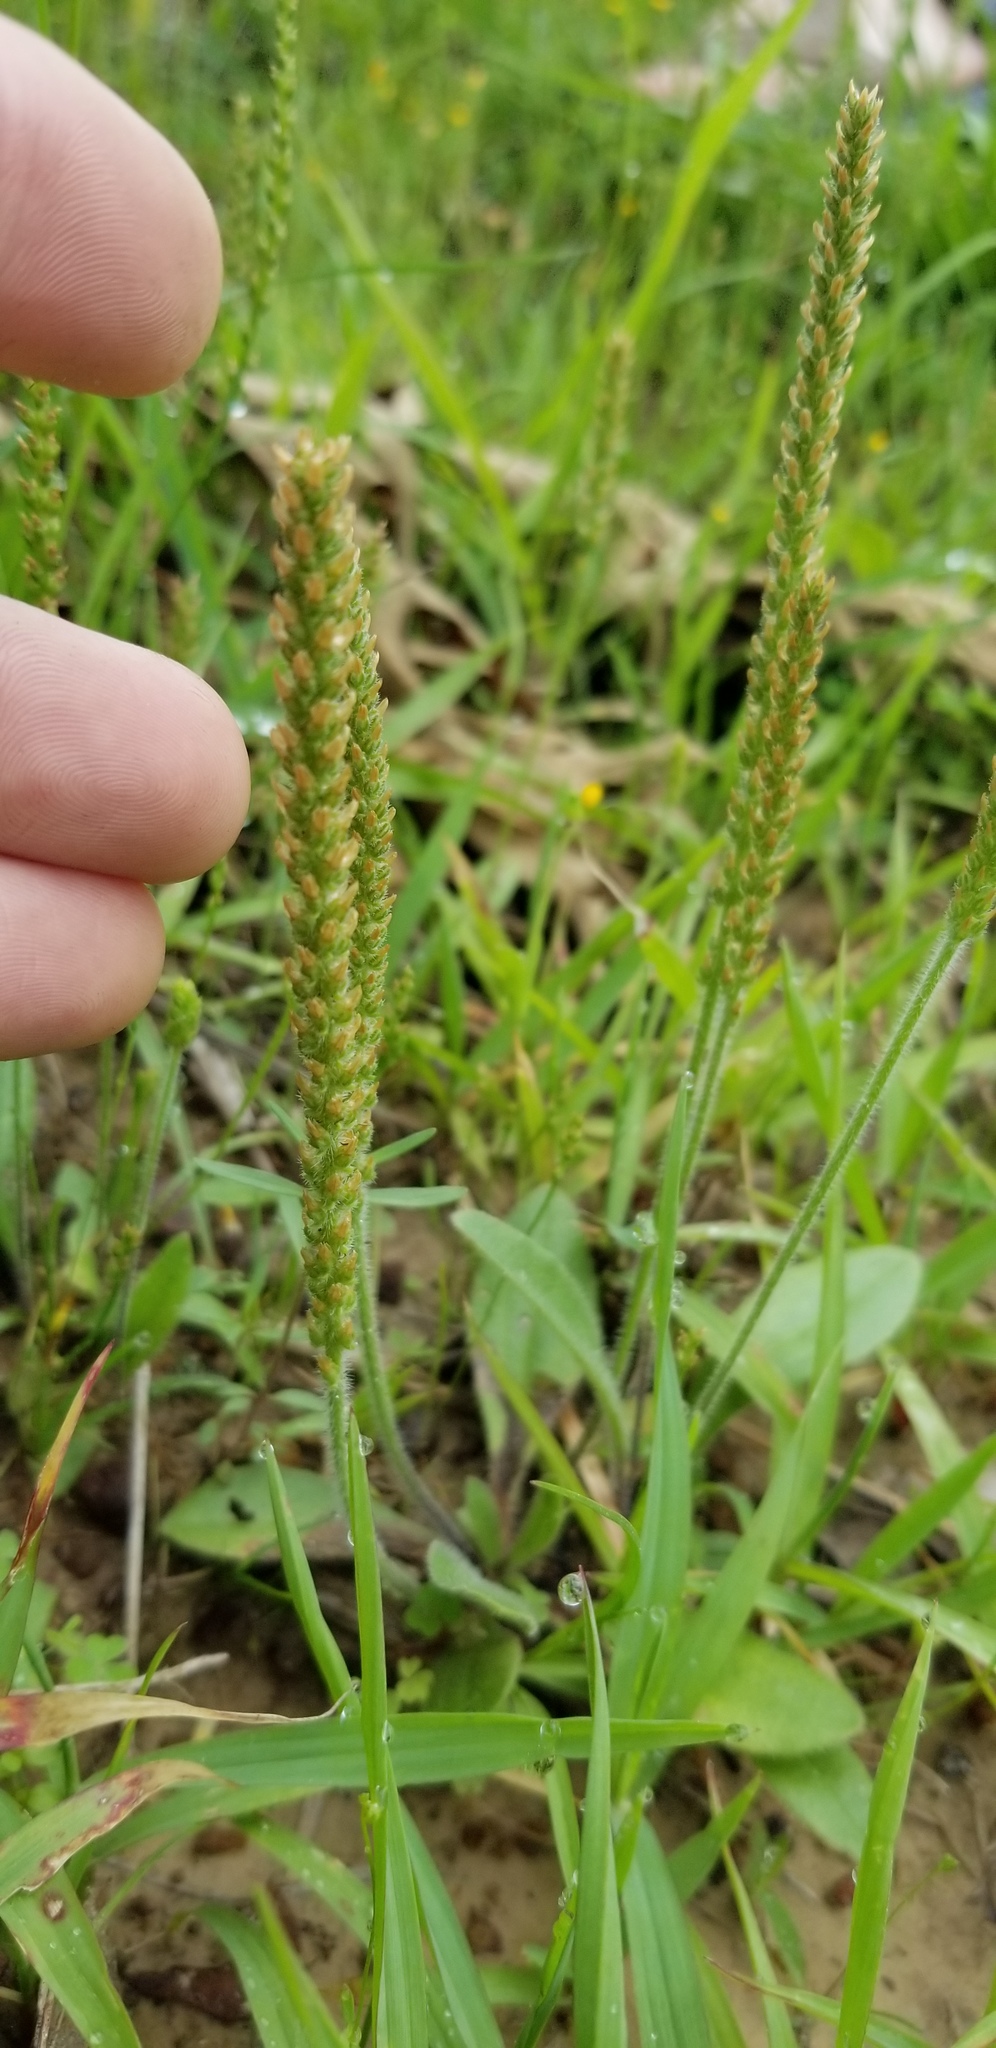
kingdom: Plantae
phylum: Tracheophyta
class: Magnoliopsida
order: Lamiales
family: Plantaginaceae
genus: Plantago
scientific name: Plantago virginica
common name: Hoary plantain
